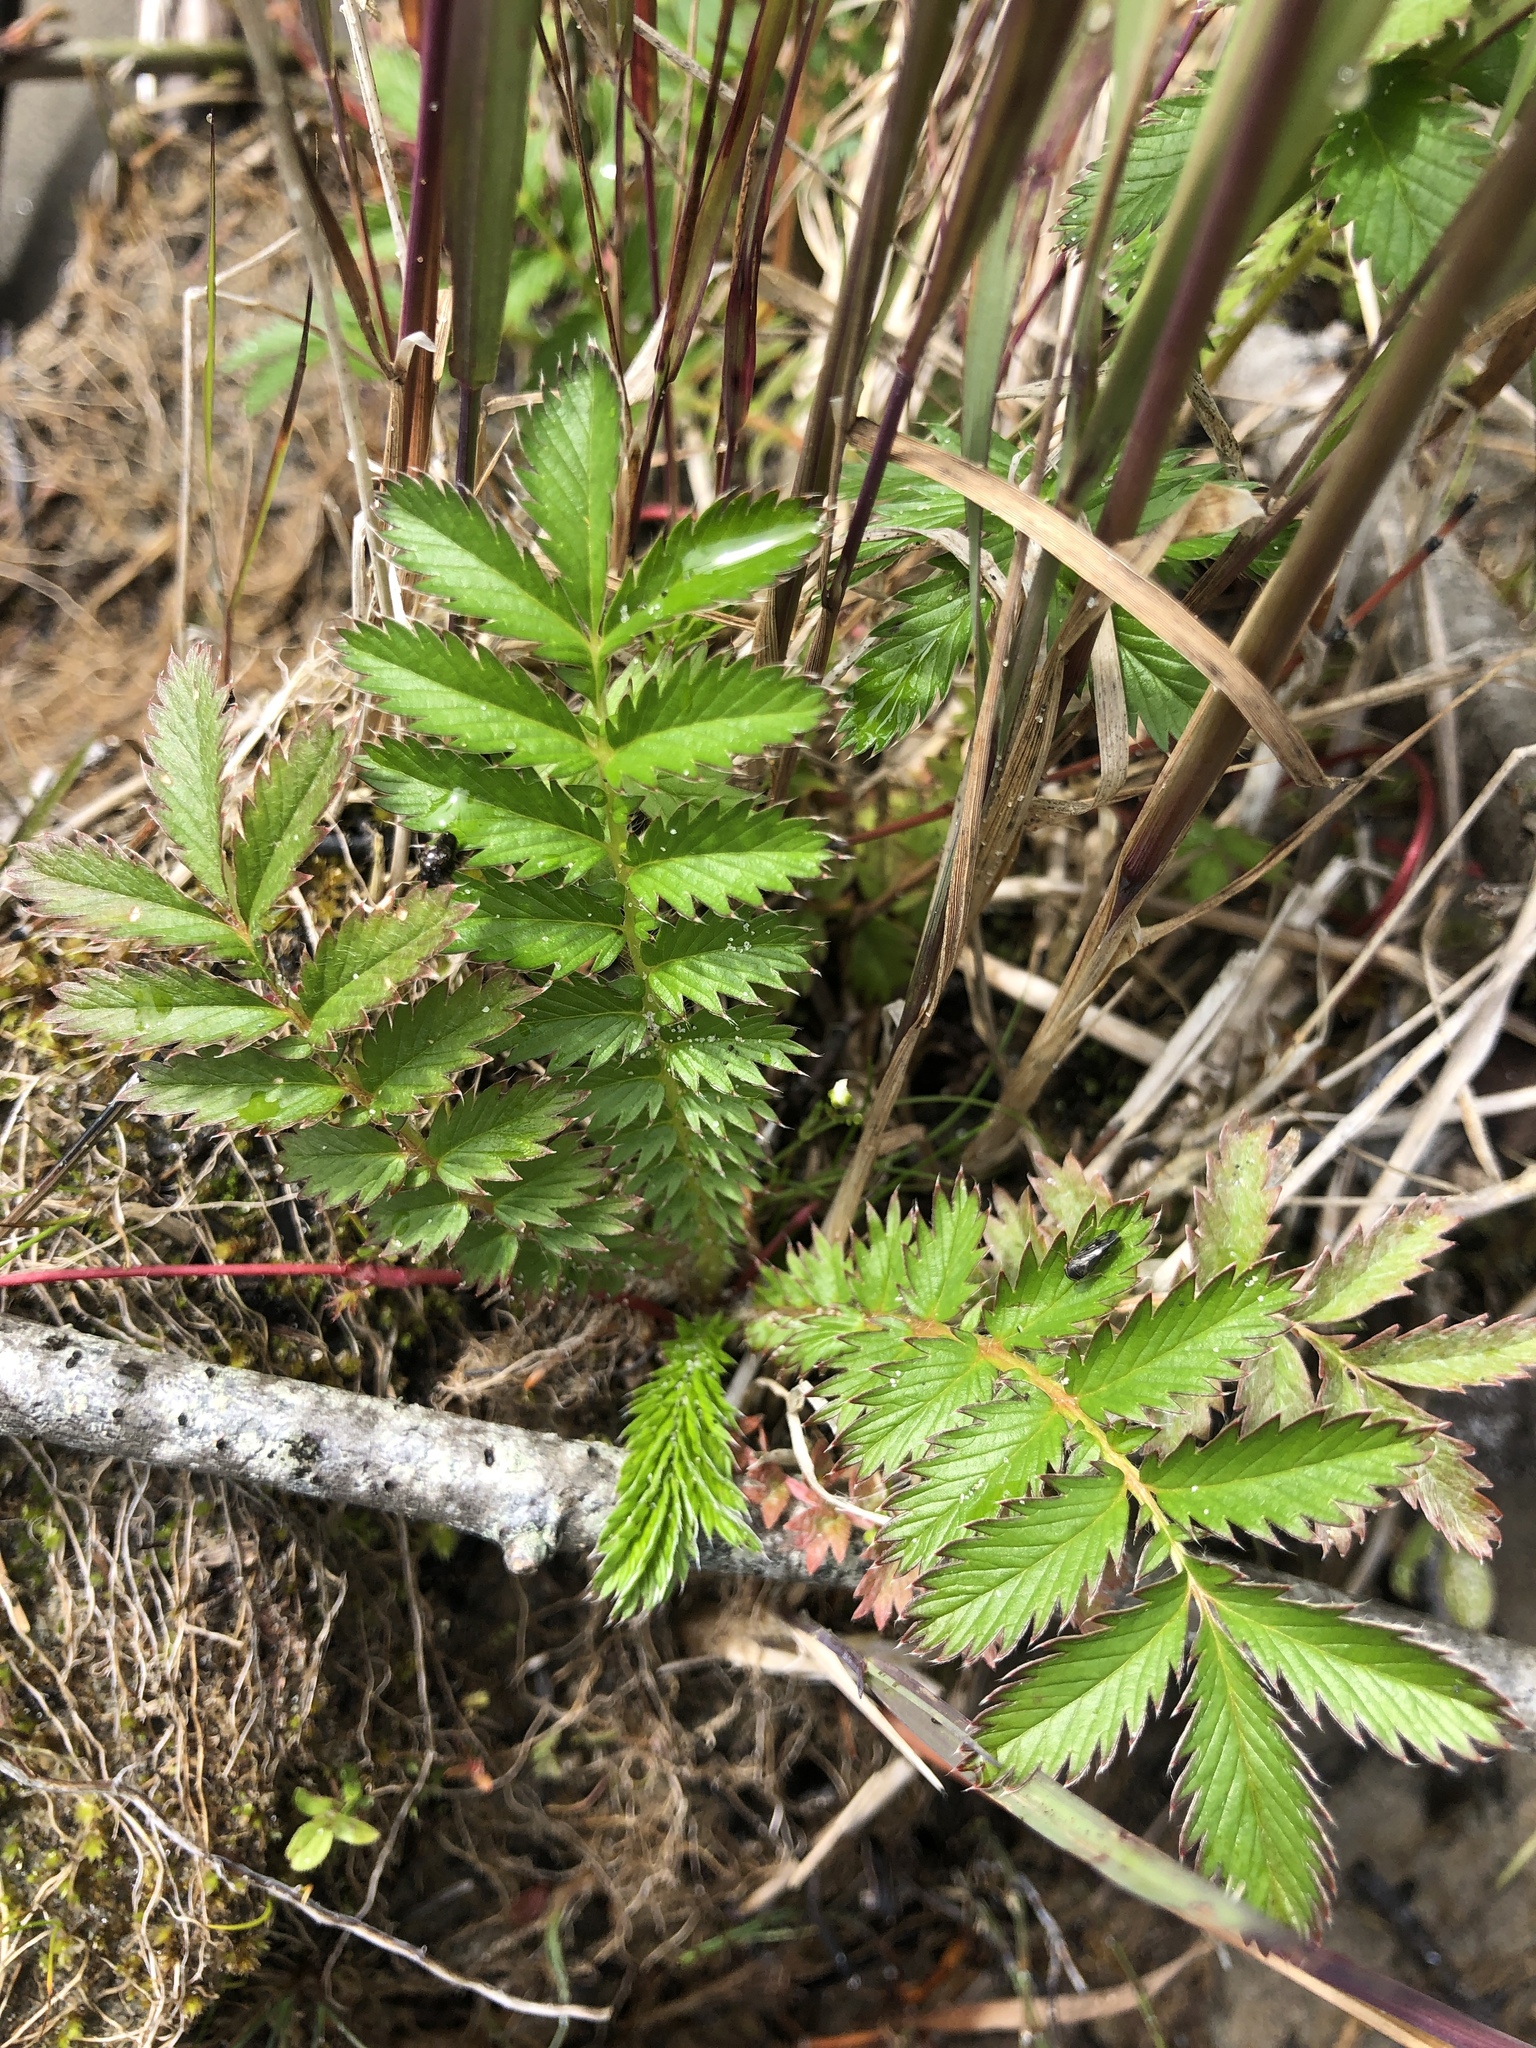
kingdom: Plantae
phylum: Tracheophyta
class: Magnoliopsida
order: Rosales
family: Rosaceae
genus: Argentina
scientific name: Argentina anserina
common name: Common silverweed
